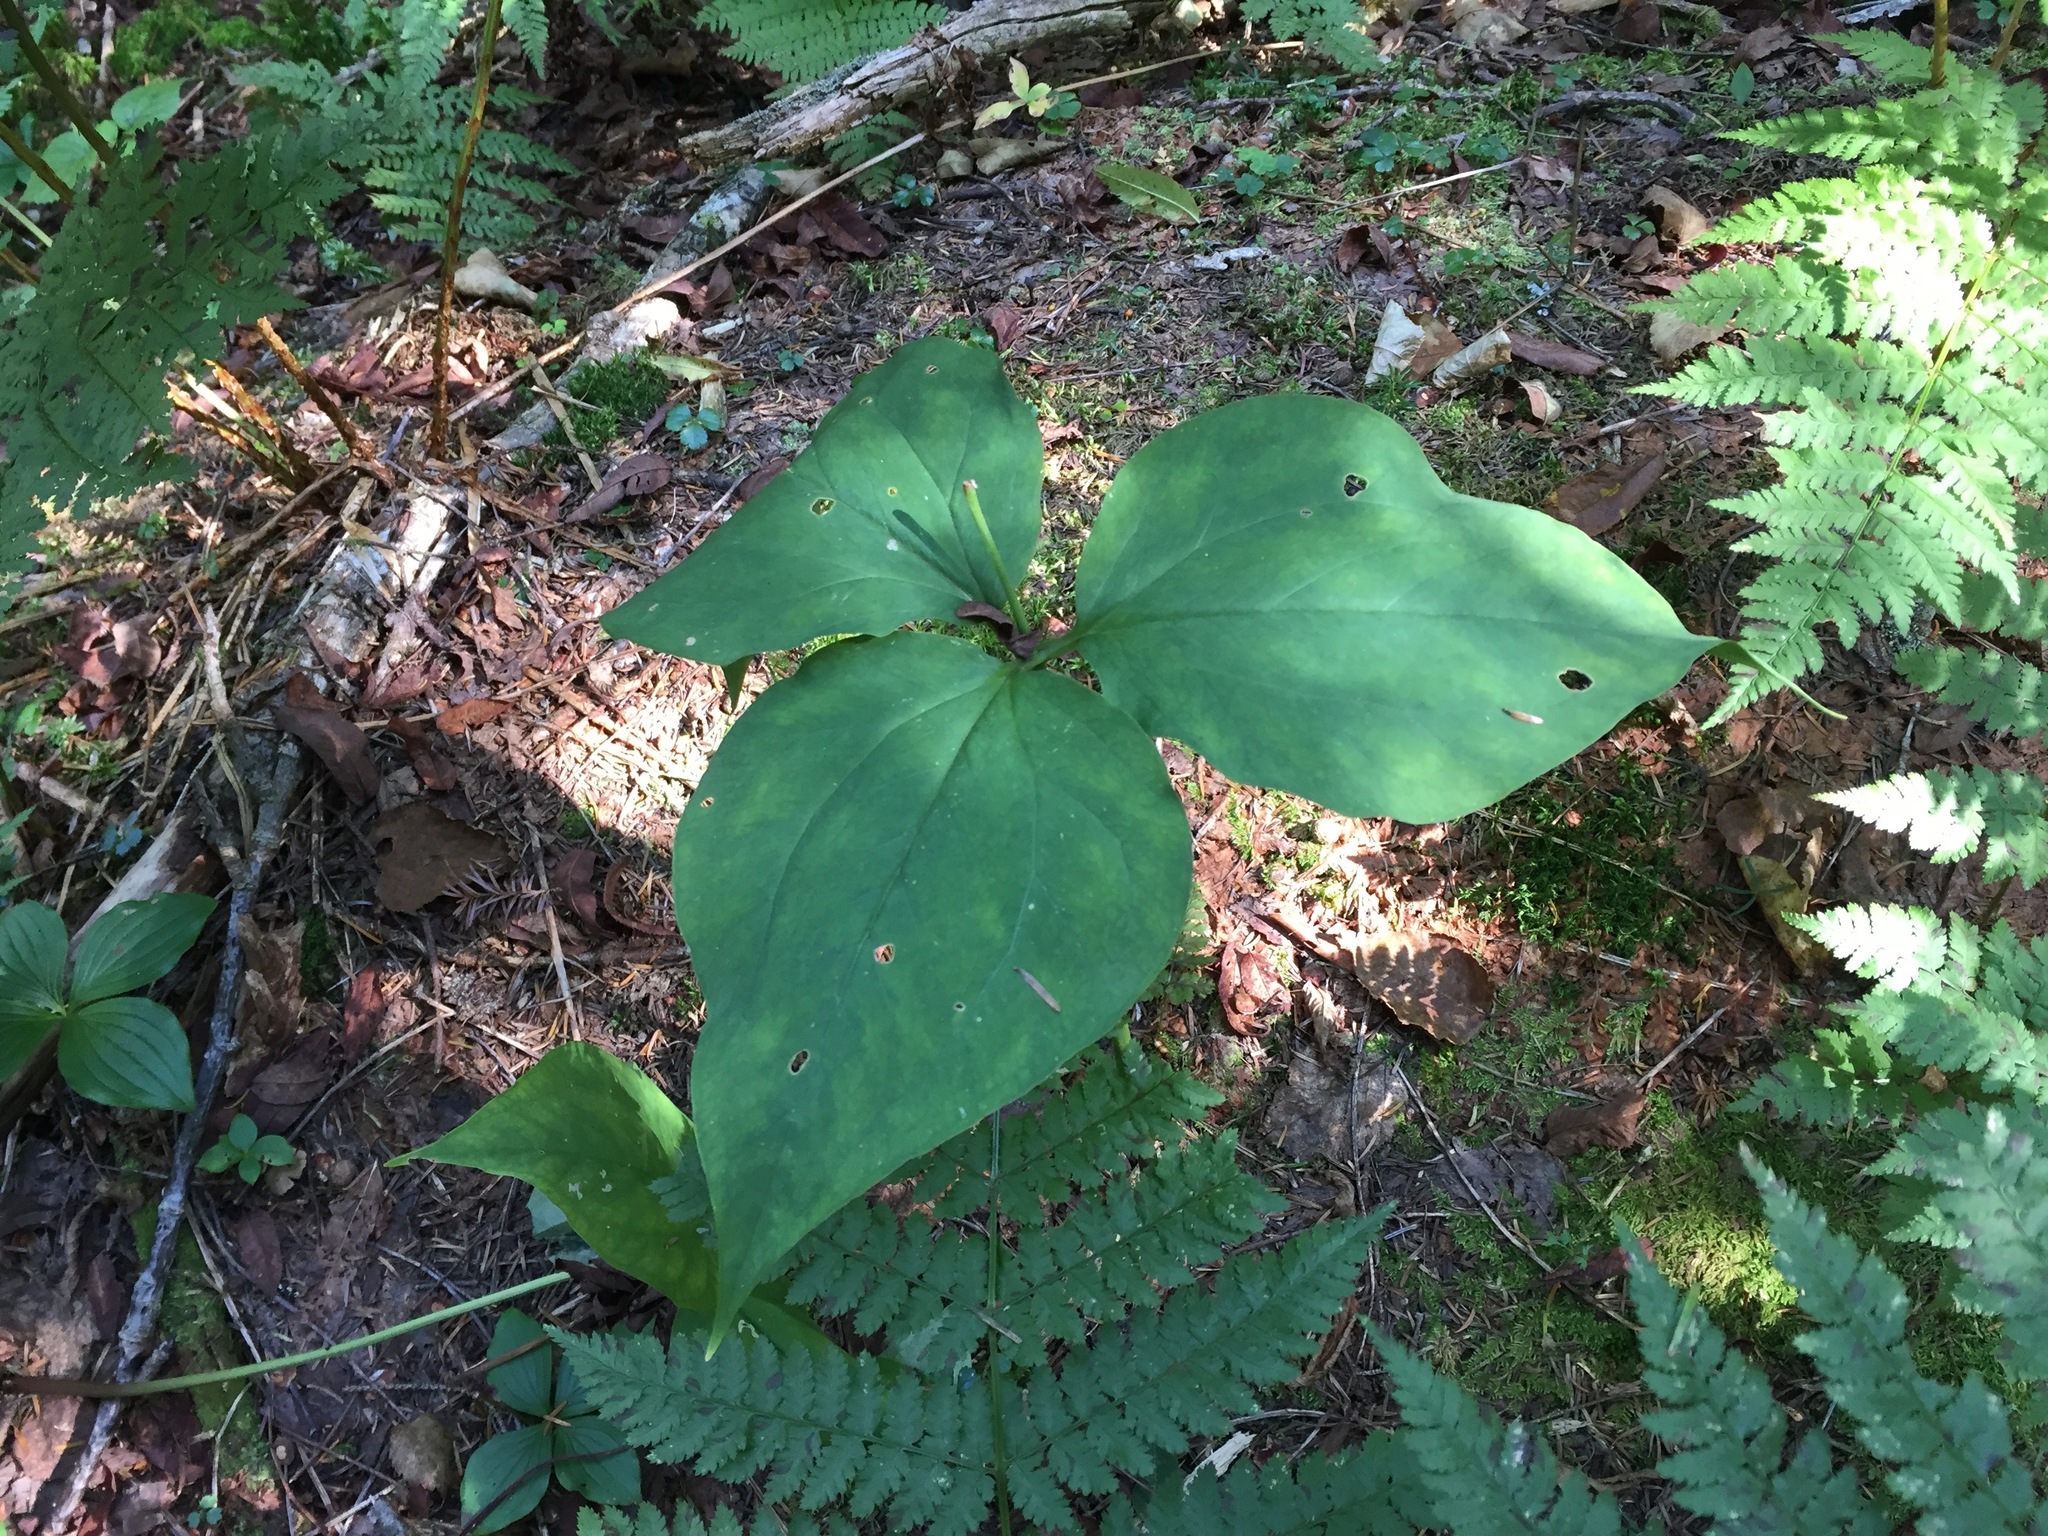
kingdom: Plantae
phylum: Tracheophyta
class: Liliopsida
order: Liliales
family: Melanthiaceae
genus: Trillium
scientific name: Trillium undulatum
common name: Paint trillium
